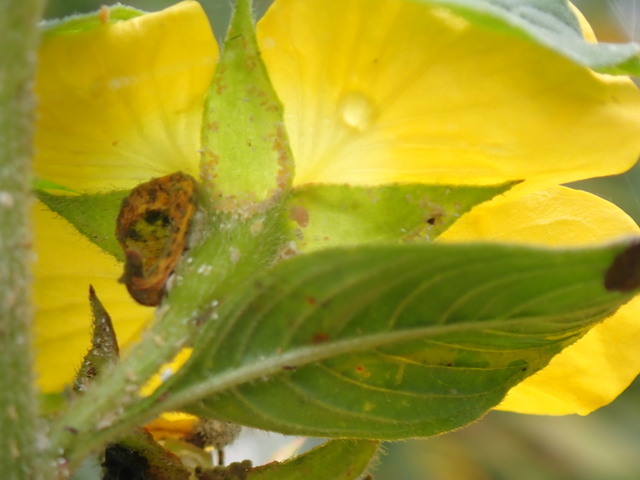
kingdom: Plantae
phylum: Tracheophyta
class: Magnoliopsida
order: Myrtales
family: Onagraceae
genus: Ludwigia
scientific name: Ludwigia peruviana
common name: Peruvian primrose-willow
